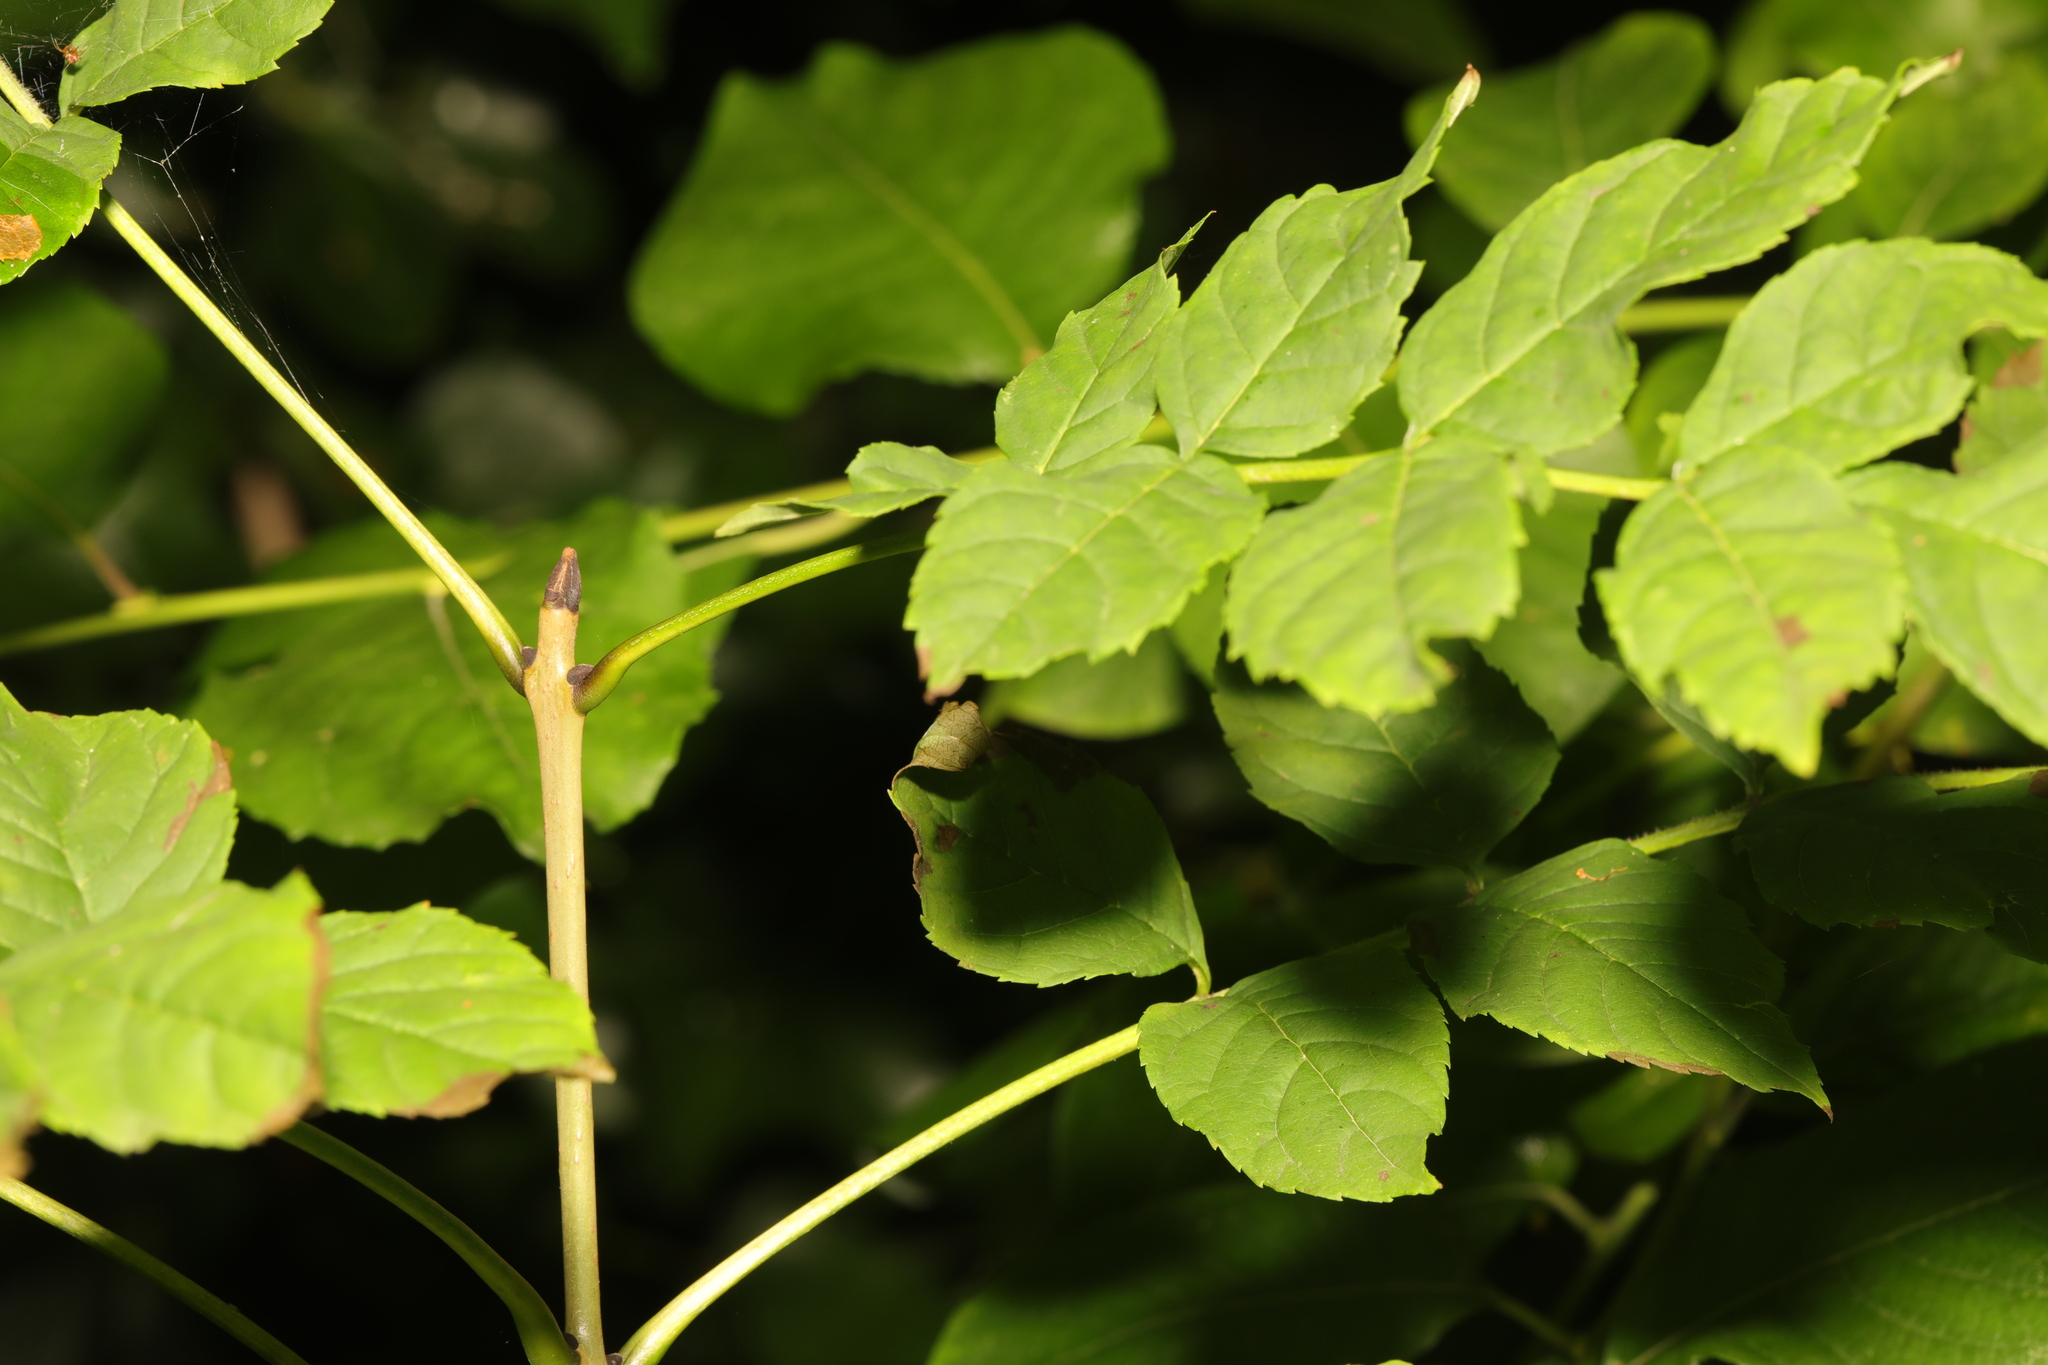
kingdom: Plantae
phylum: Tracheophyta
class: Magnoliopsida
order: Lamiales
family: Oleaceae
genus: Fraxinus
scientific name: Fraxinus excelsior
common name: European ash
